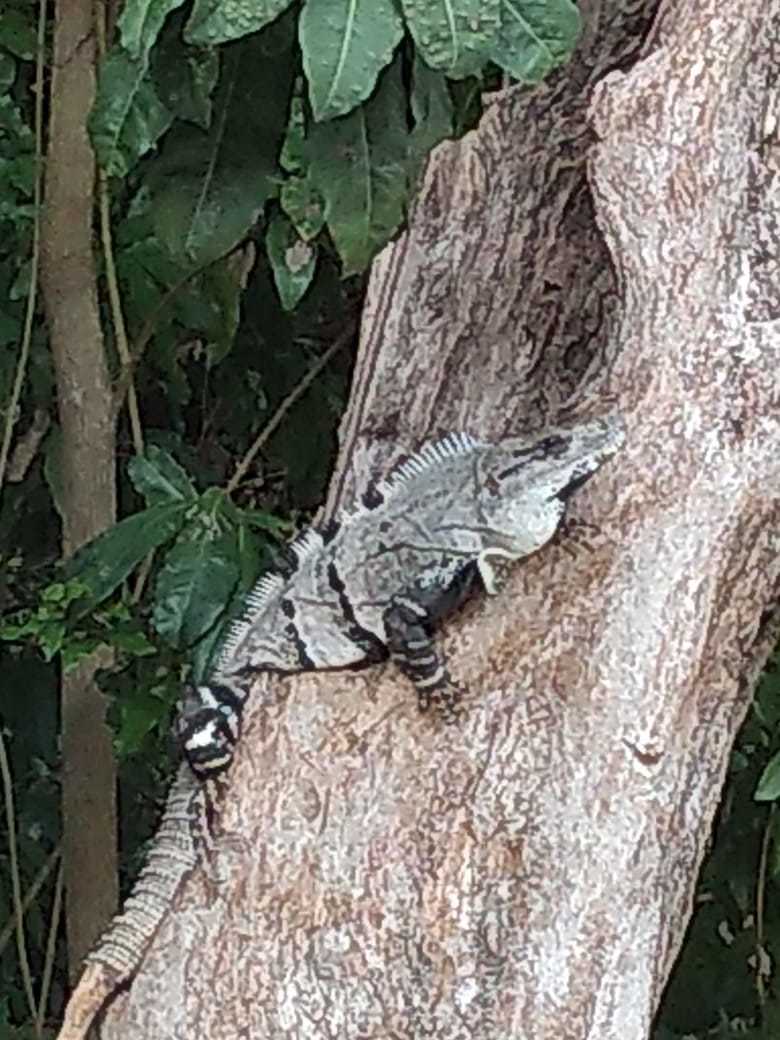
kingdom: Animalia
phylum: Chordata
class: Squamata
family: Iguanidae
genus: Ctenosaura
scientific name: Ctenosaura similis
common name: Black spiny-tailed iguana
